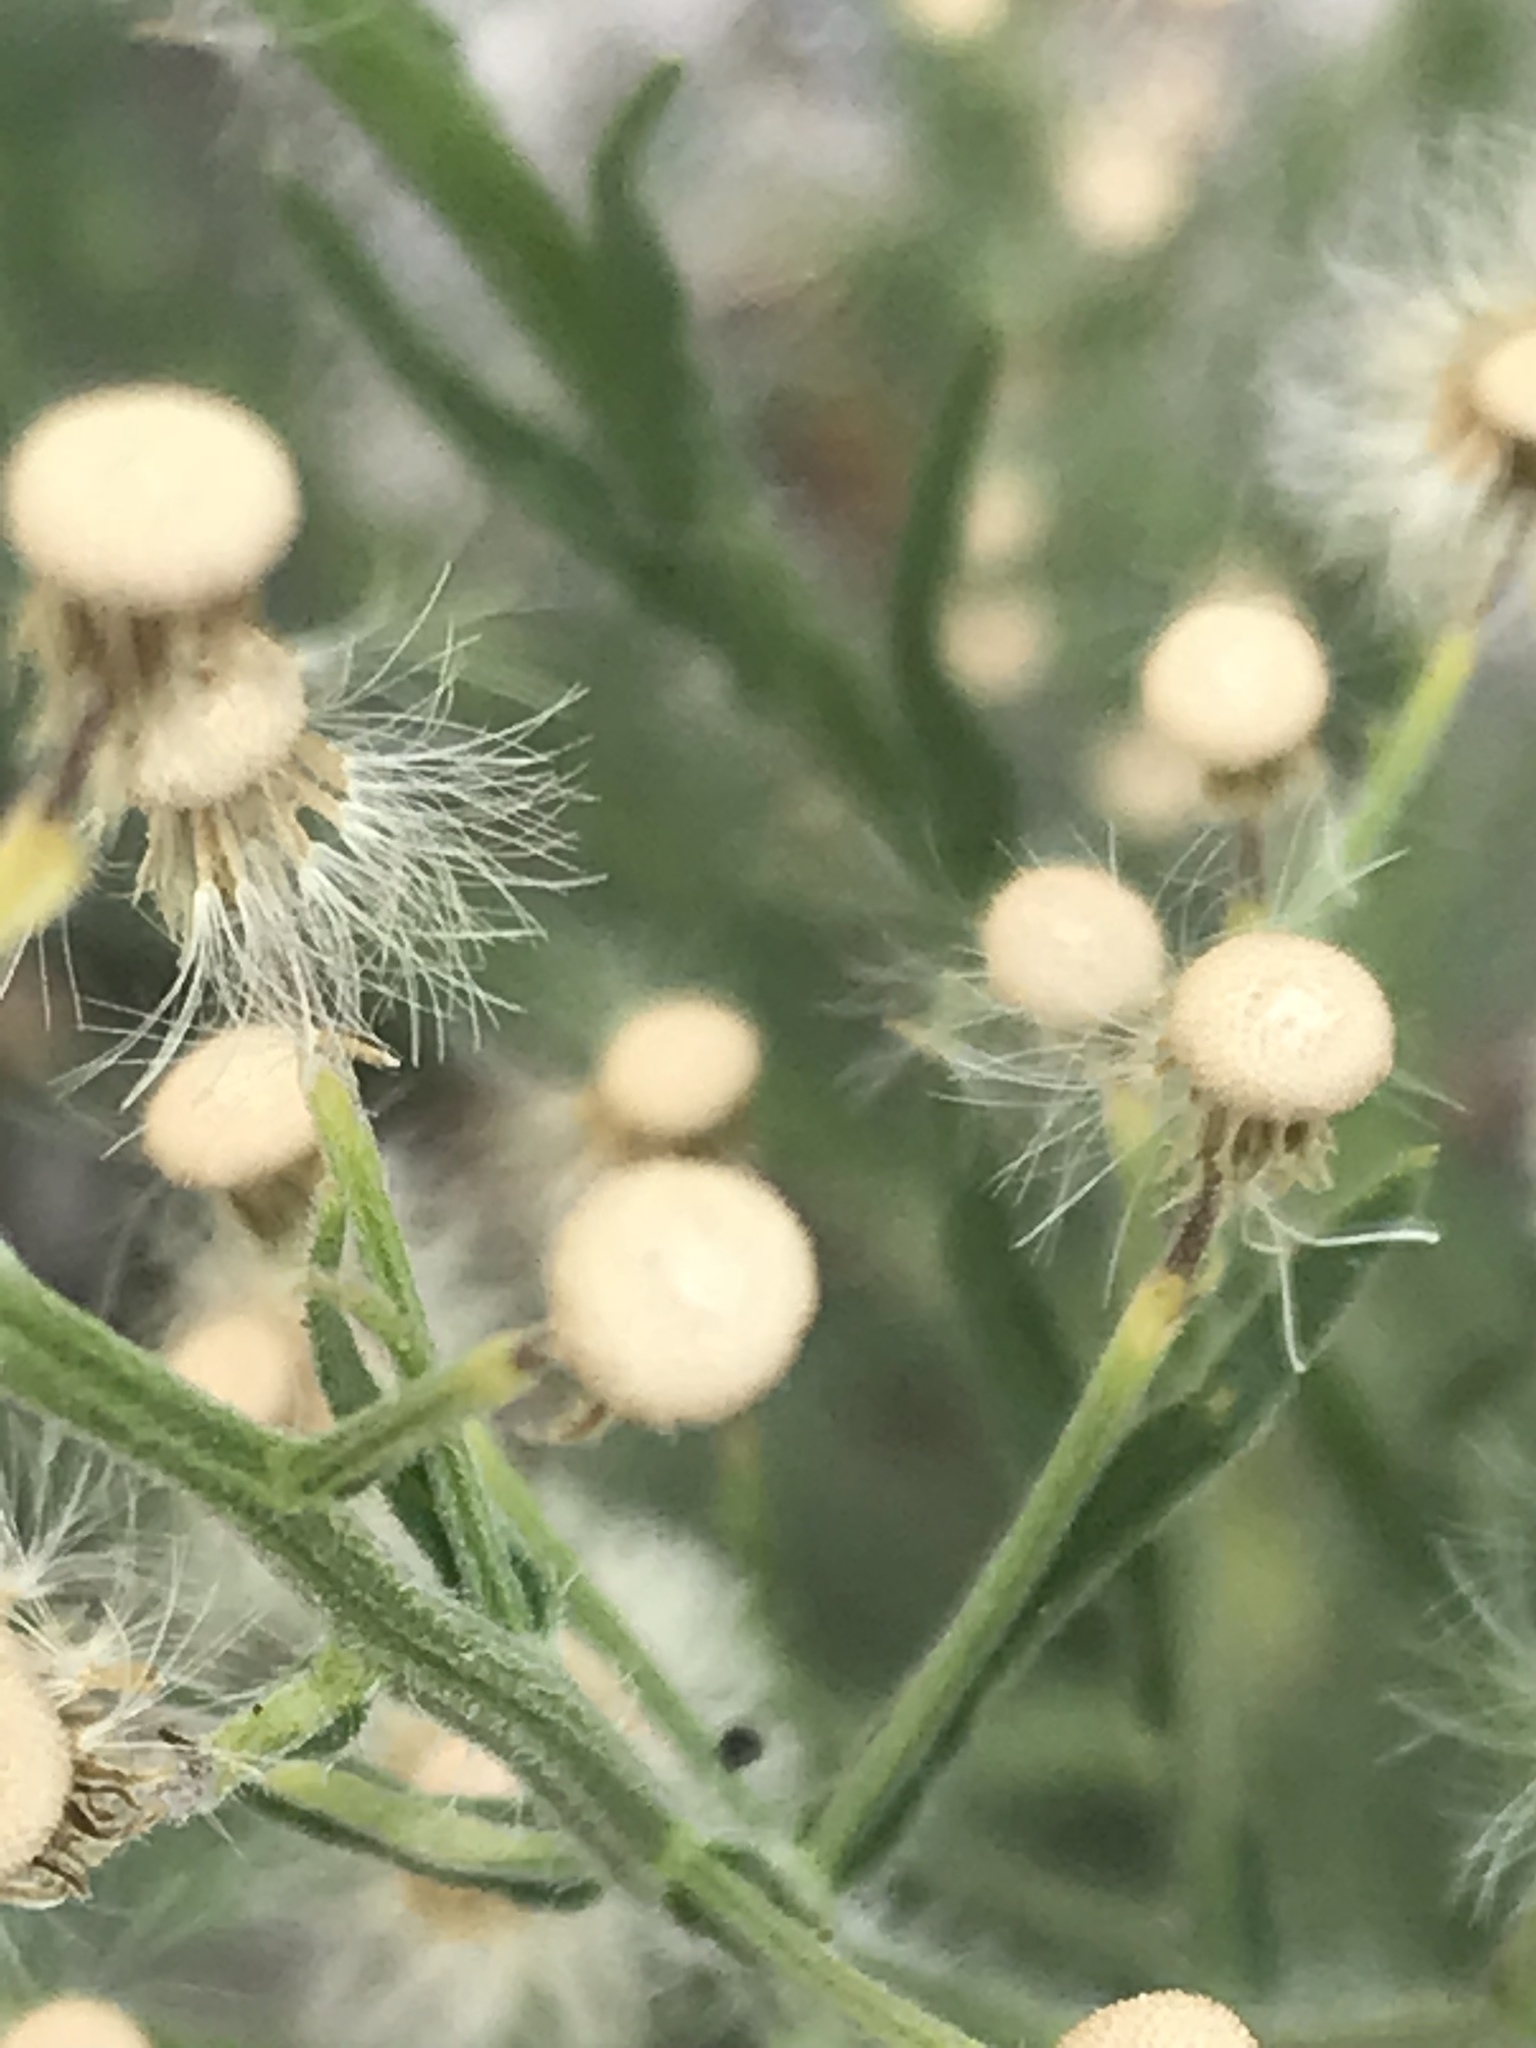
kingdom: Plantae
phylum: Tracheophyta
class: Magnoliopsida
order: Asterales
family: Asteraceae
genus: Erigeron
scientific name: Erigeron bonariensis
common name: Argentine fleabane
